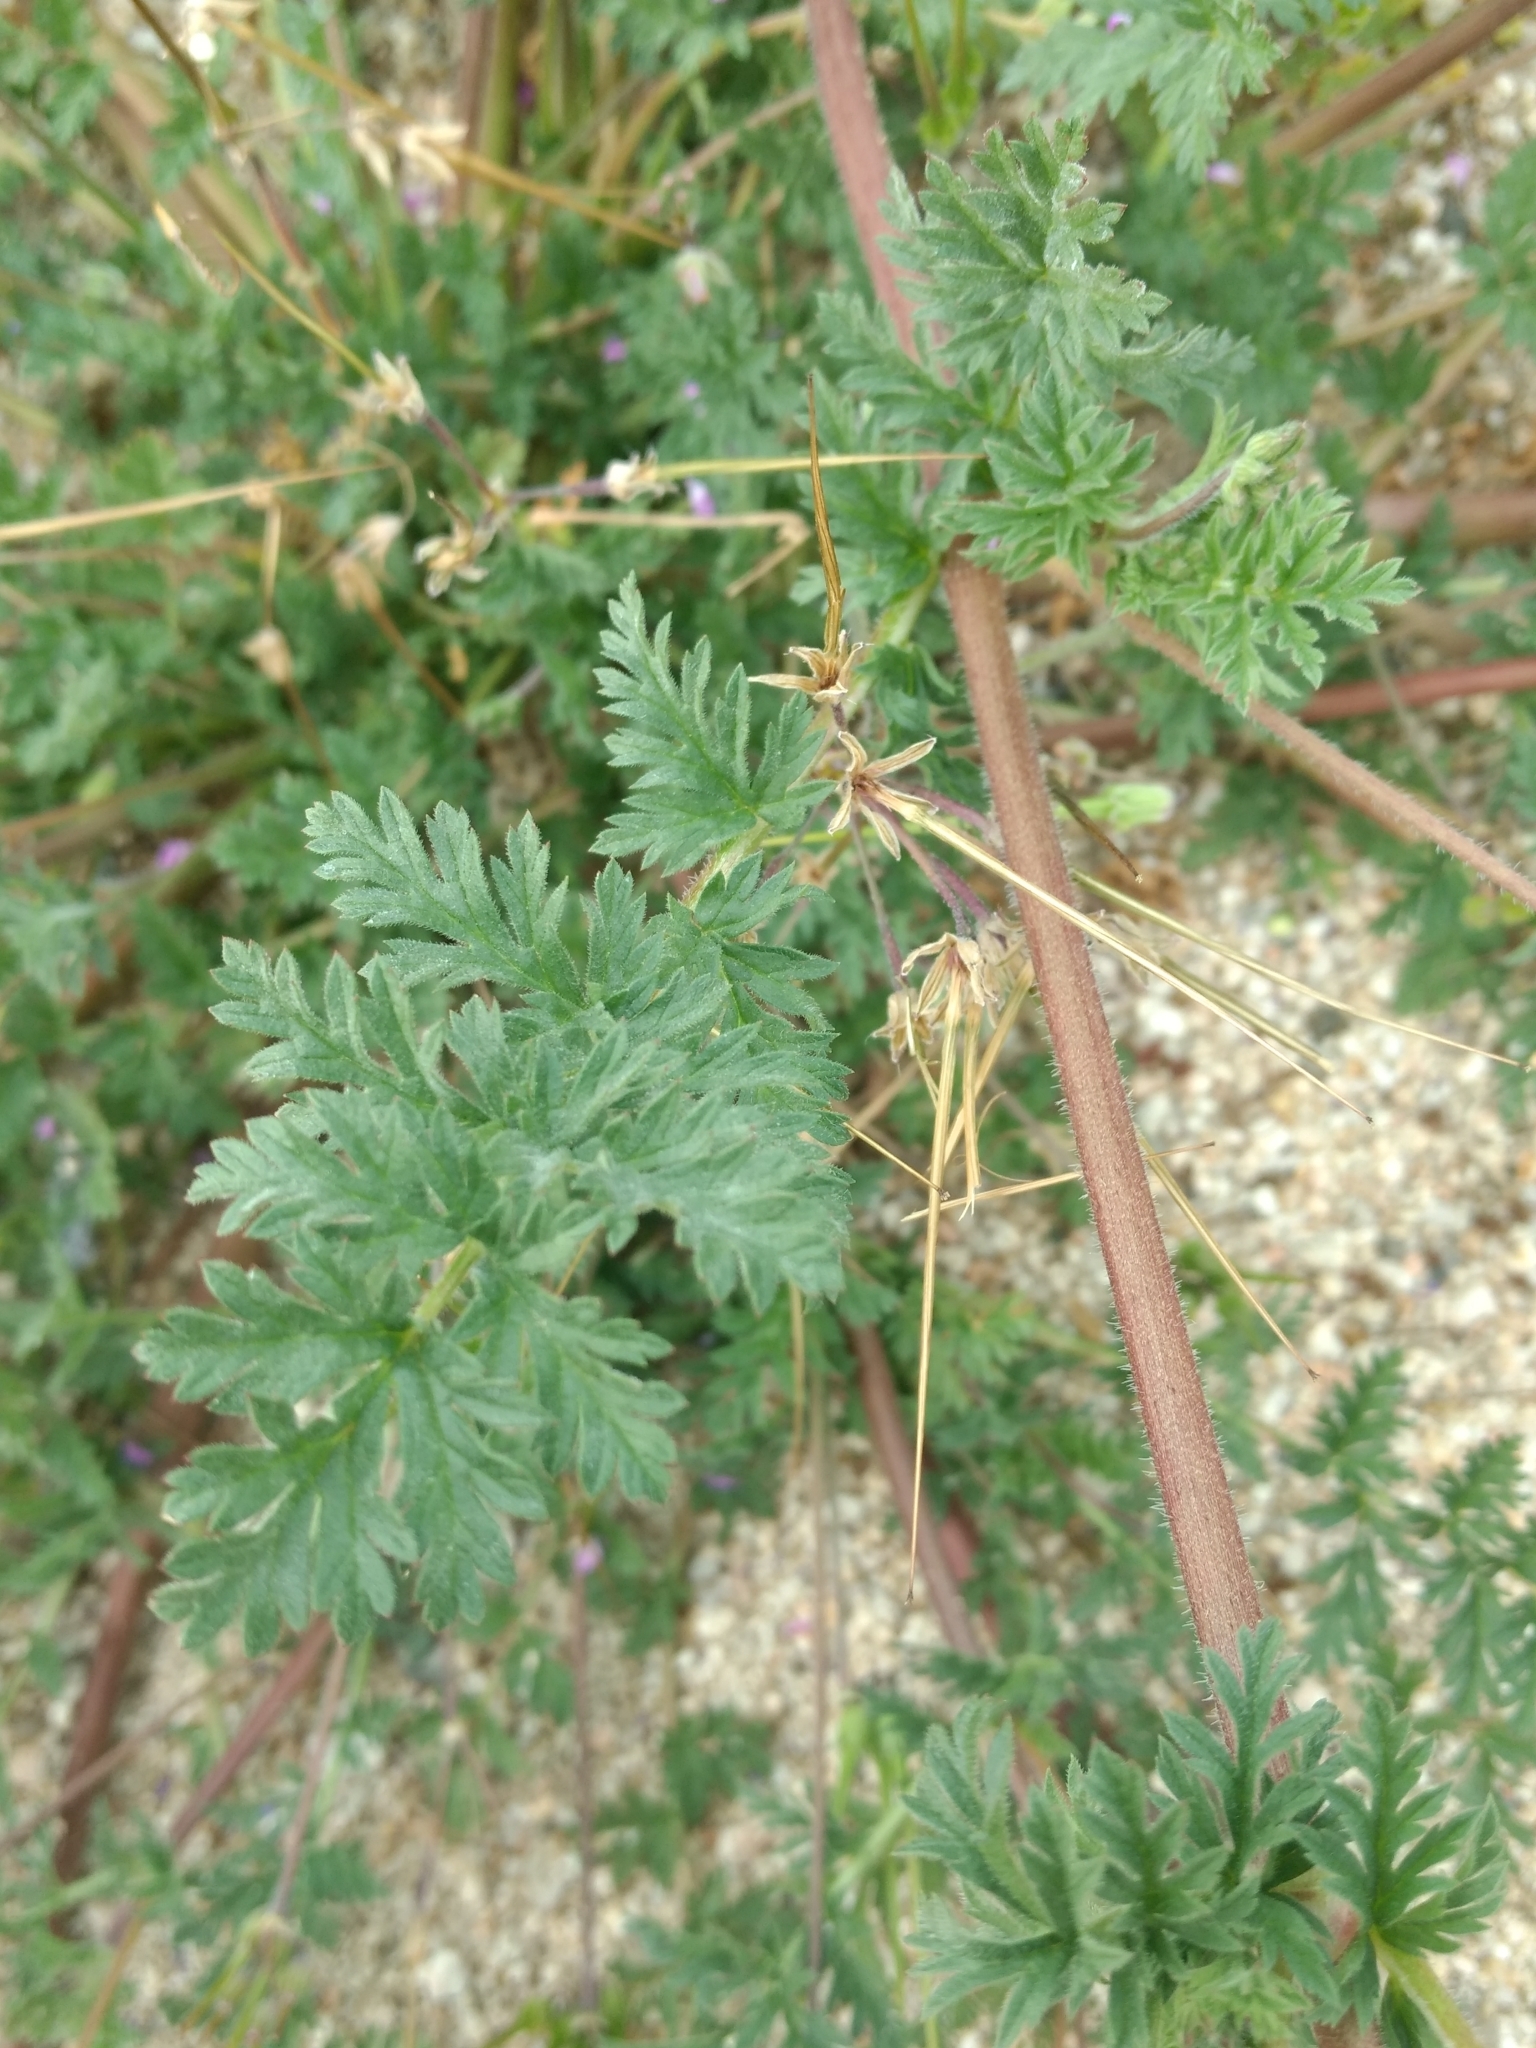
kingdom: Plantae
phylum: Tracheophyta
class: Magnoliopsida
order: Geraniales
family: Geraniaceae
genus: Erodium
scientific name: Erodium cicutarium
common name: Common stork's-bill
